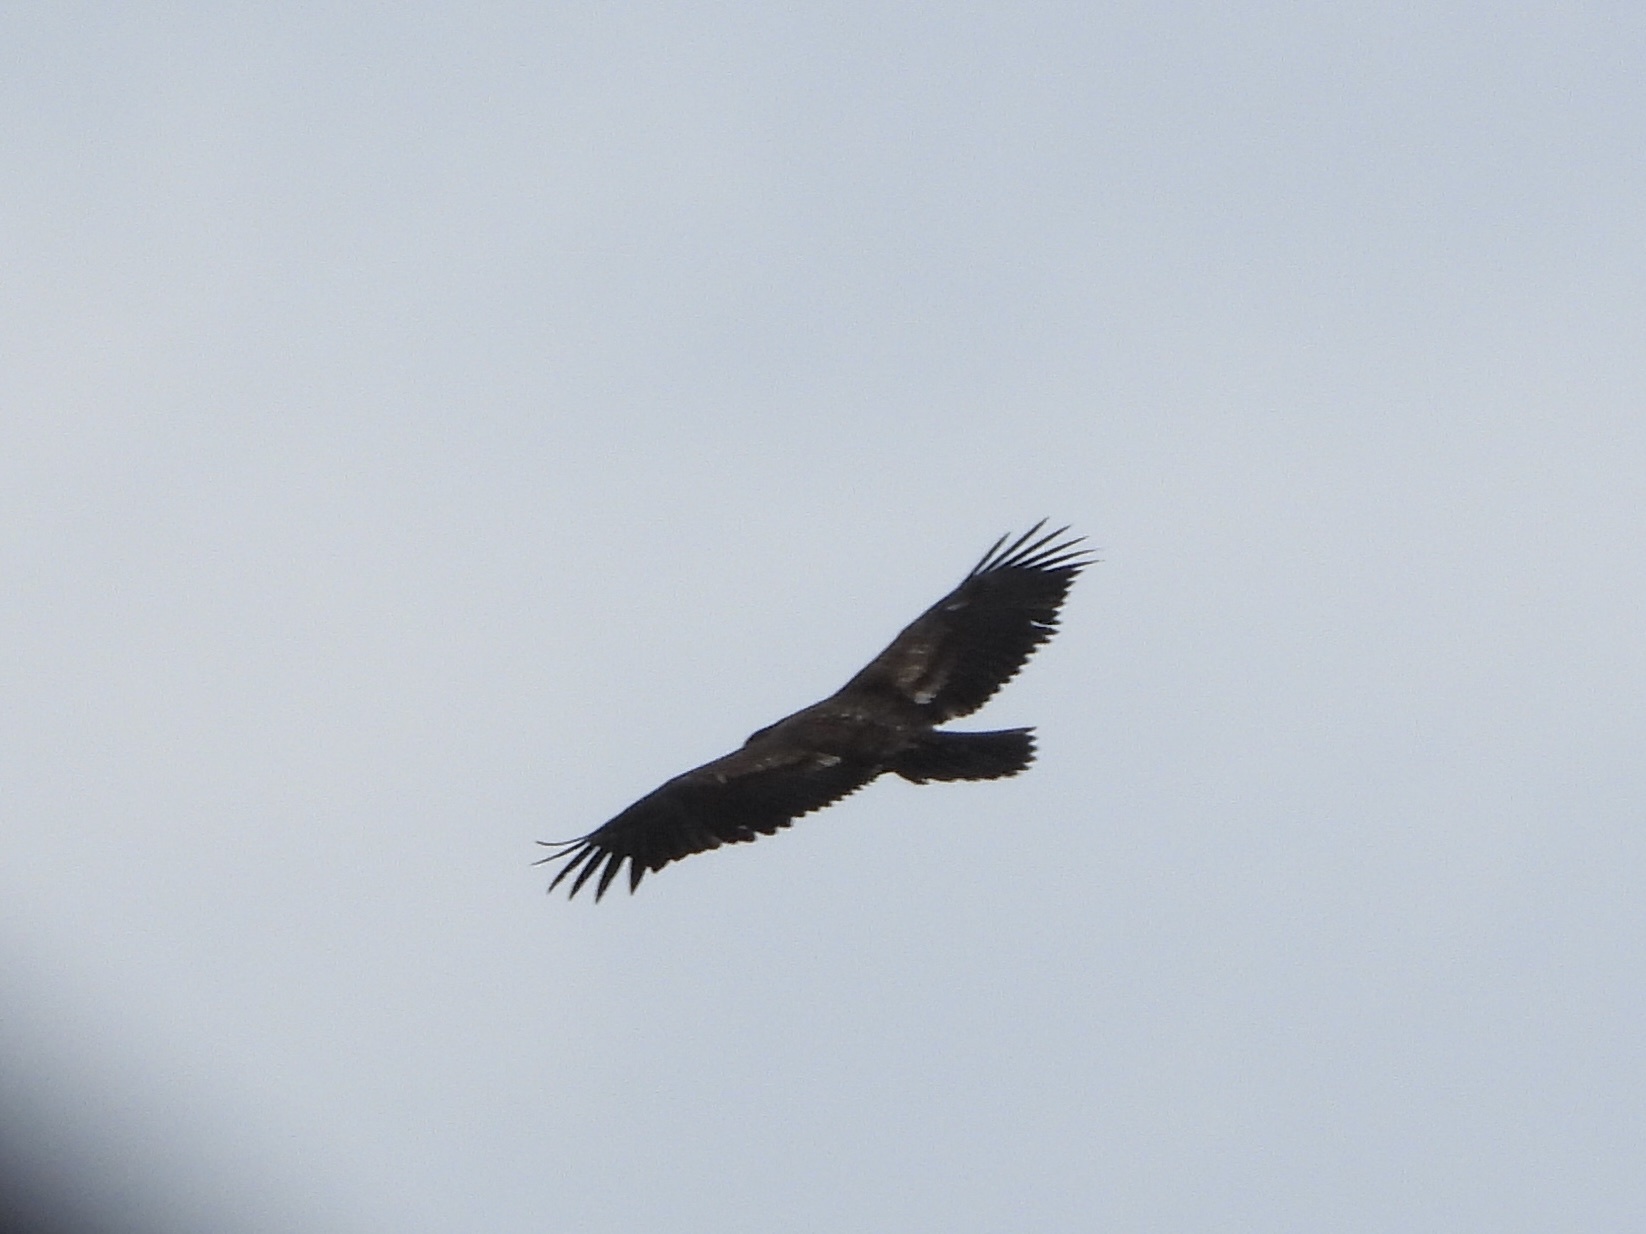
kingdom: Animalia
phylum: Chordata
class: Aves
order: Accipitriformes
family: Accipitridae
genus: Haliaeetus
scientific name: Haliaeetus leucocephalus
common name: Bald eagle
